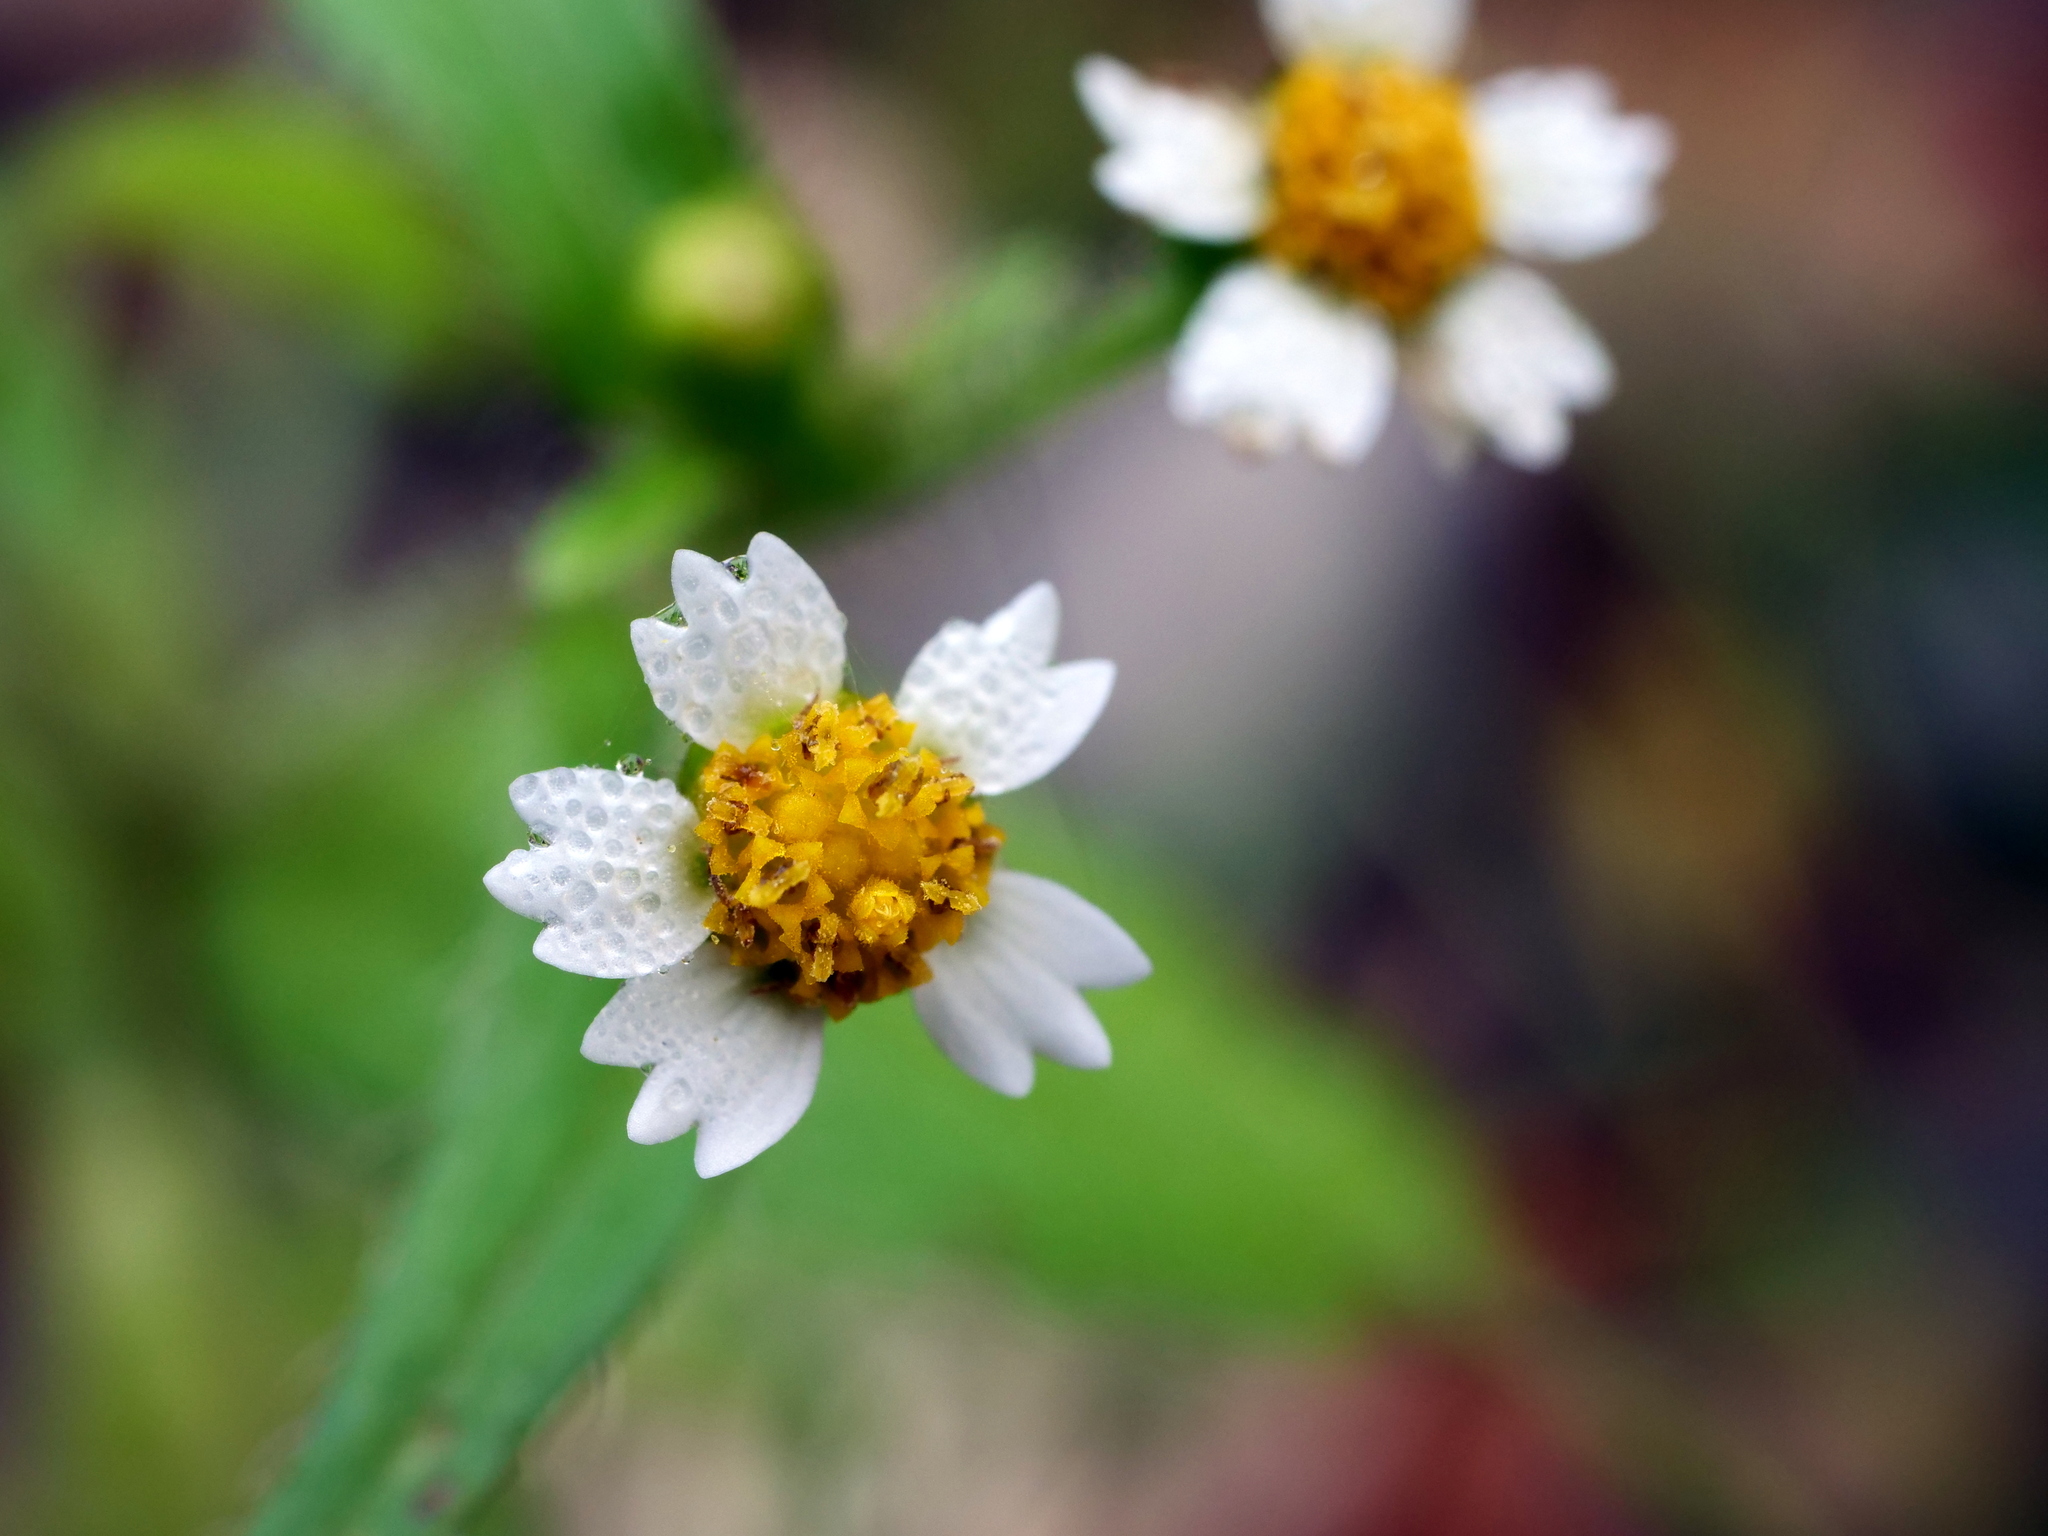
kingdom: Plantae
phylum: Tracheophyta
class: Magnoliopsida
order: Asterales
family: Asteraceae
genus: Galinsoga
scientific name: Galinsoga quadriradiata
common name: Shaggy soldier
